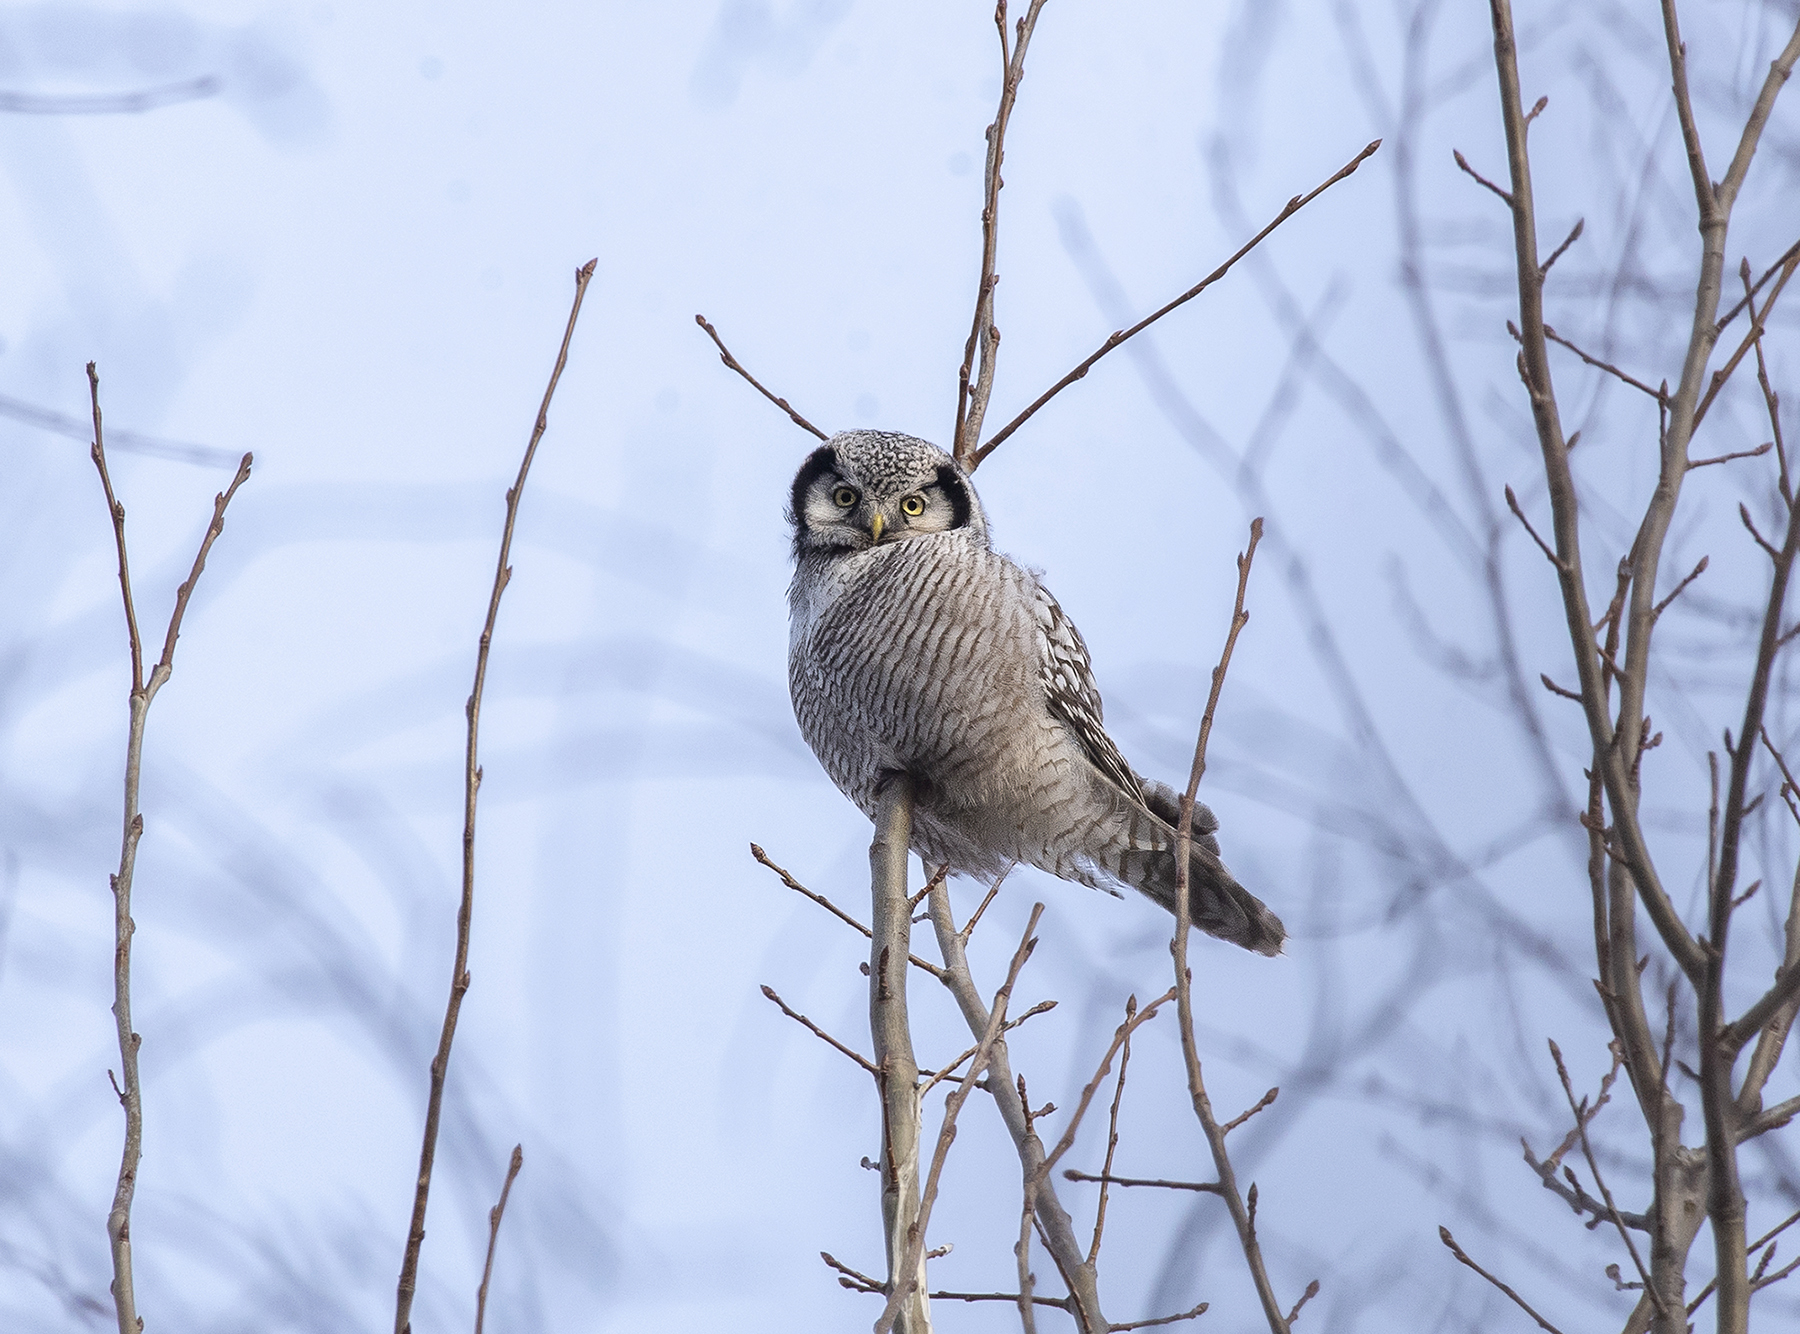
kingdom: Animalia
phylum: Chordata
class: Aves
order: Strigiformes
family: Strigidae
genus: Surnia
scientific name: Surnia ulula
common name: Northern hawk-owl
